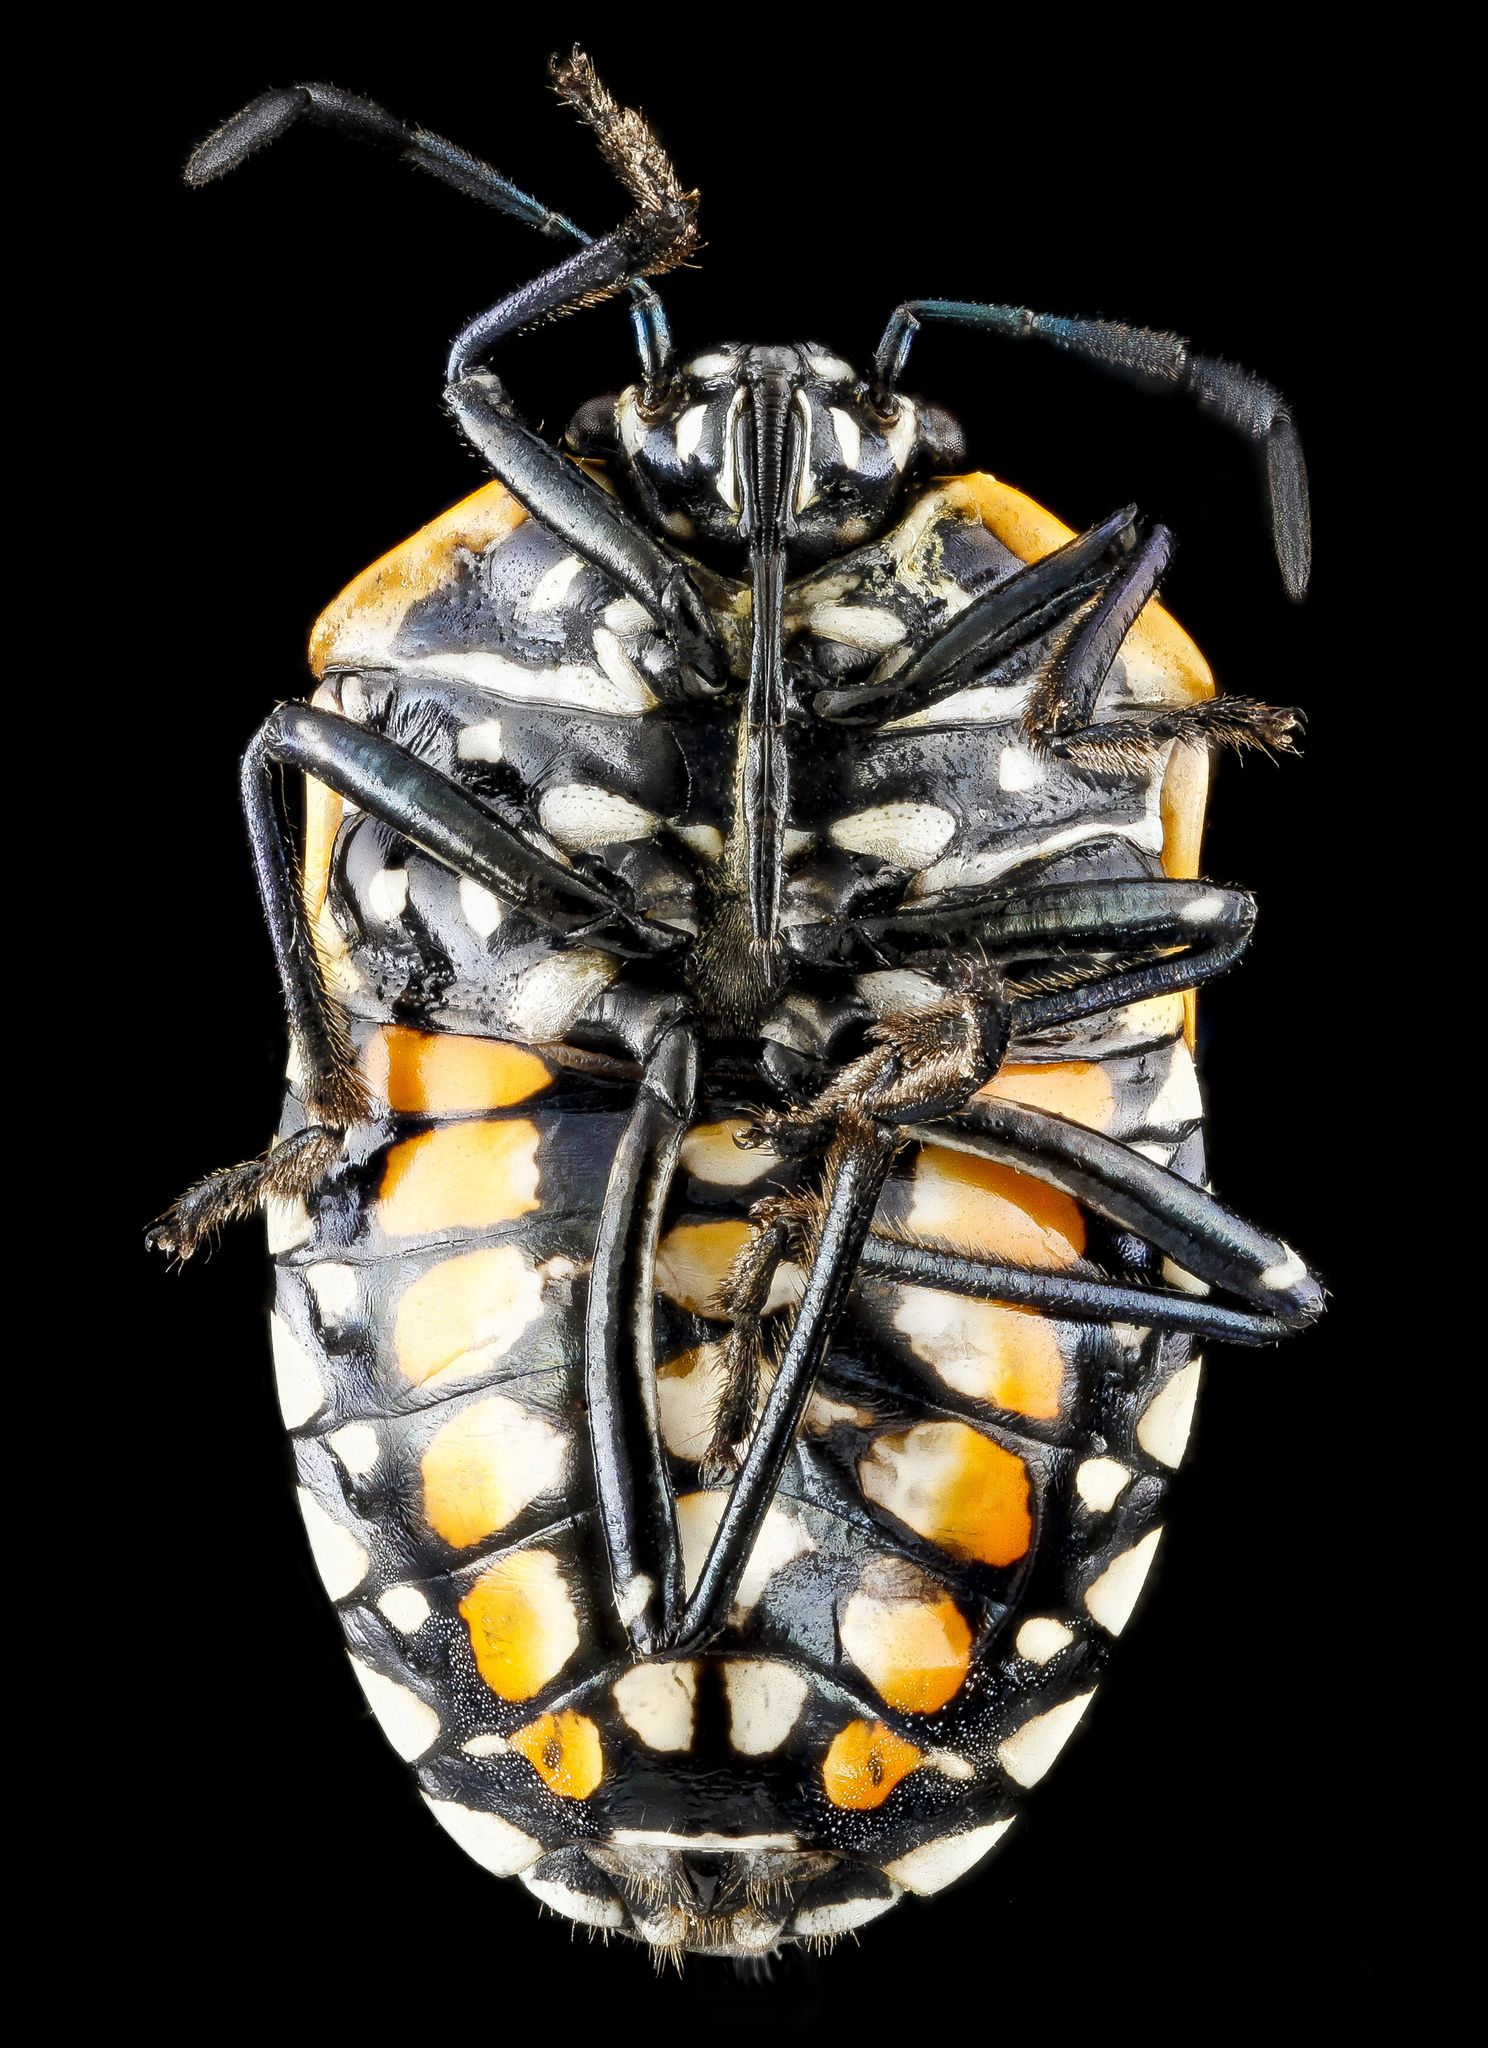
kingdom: Animalia
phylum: Arthropoda
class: Insecta
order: Hemiptera
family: Pentatomidae
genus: Murgantia
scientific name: Murgantia histrionica
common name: Harlequin bug
